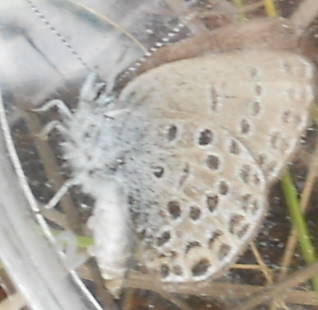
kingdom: Animalia
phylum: Arthropoda
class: Insecta
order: Lepidoptera
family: Lycaenidae
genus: Vacciniina
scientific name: Vacciniina optilete
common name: Cranberry blue
